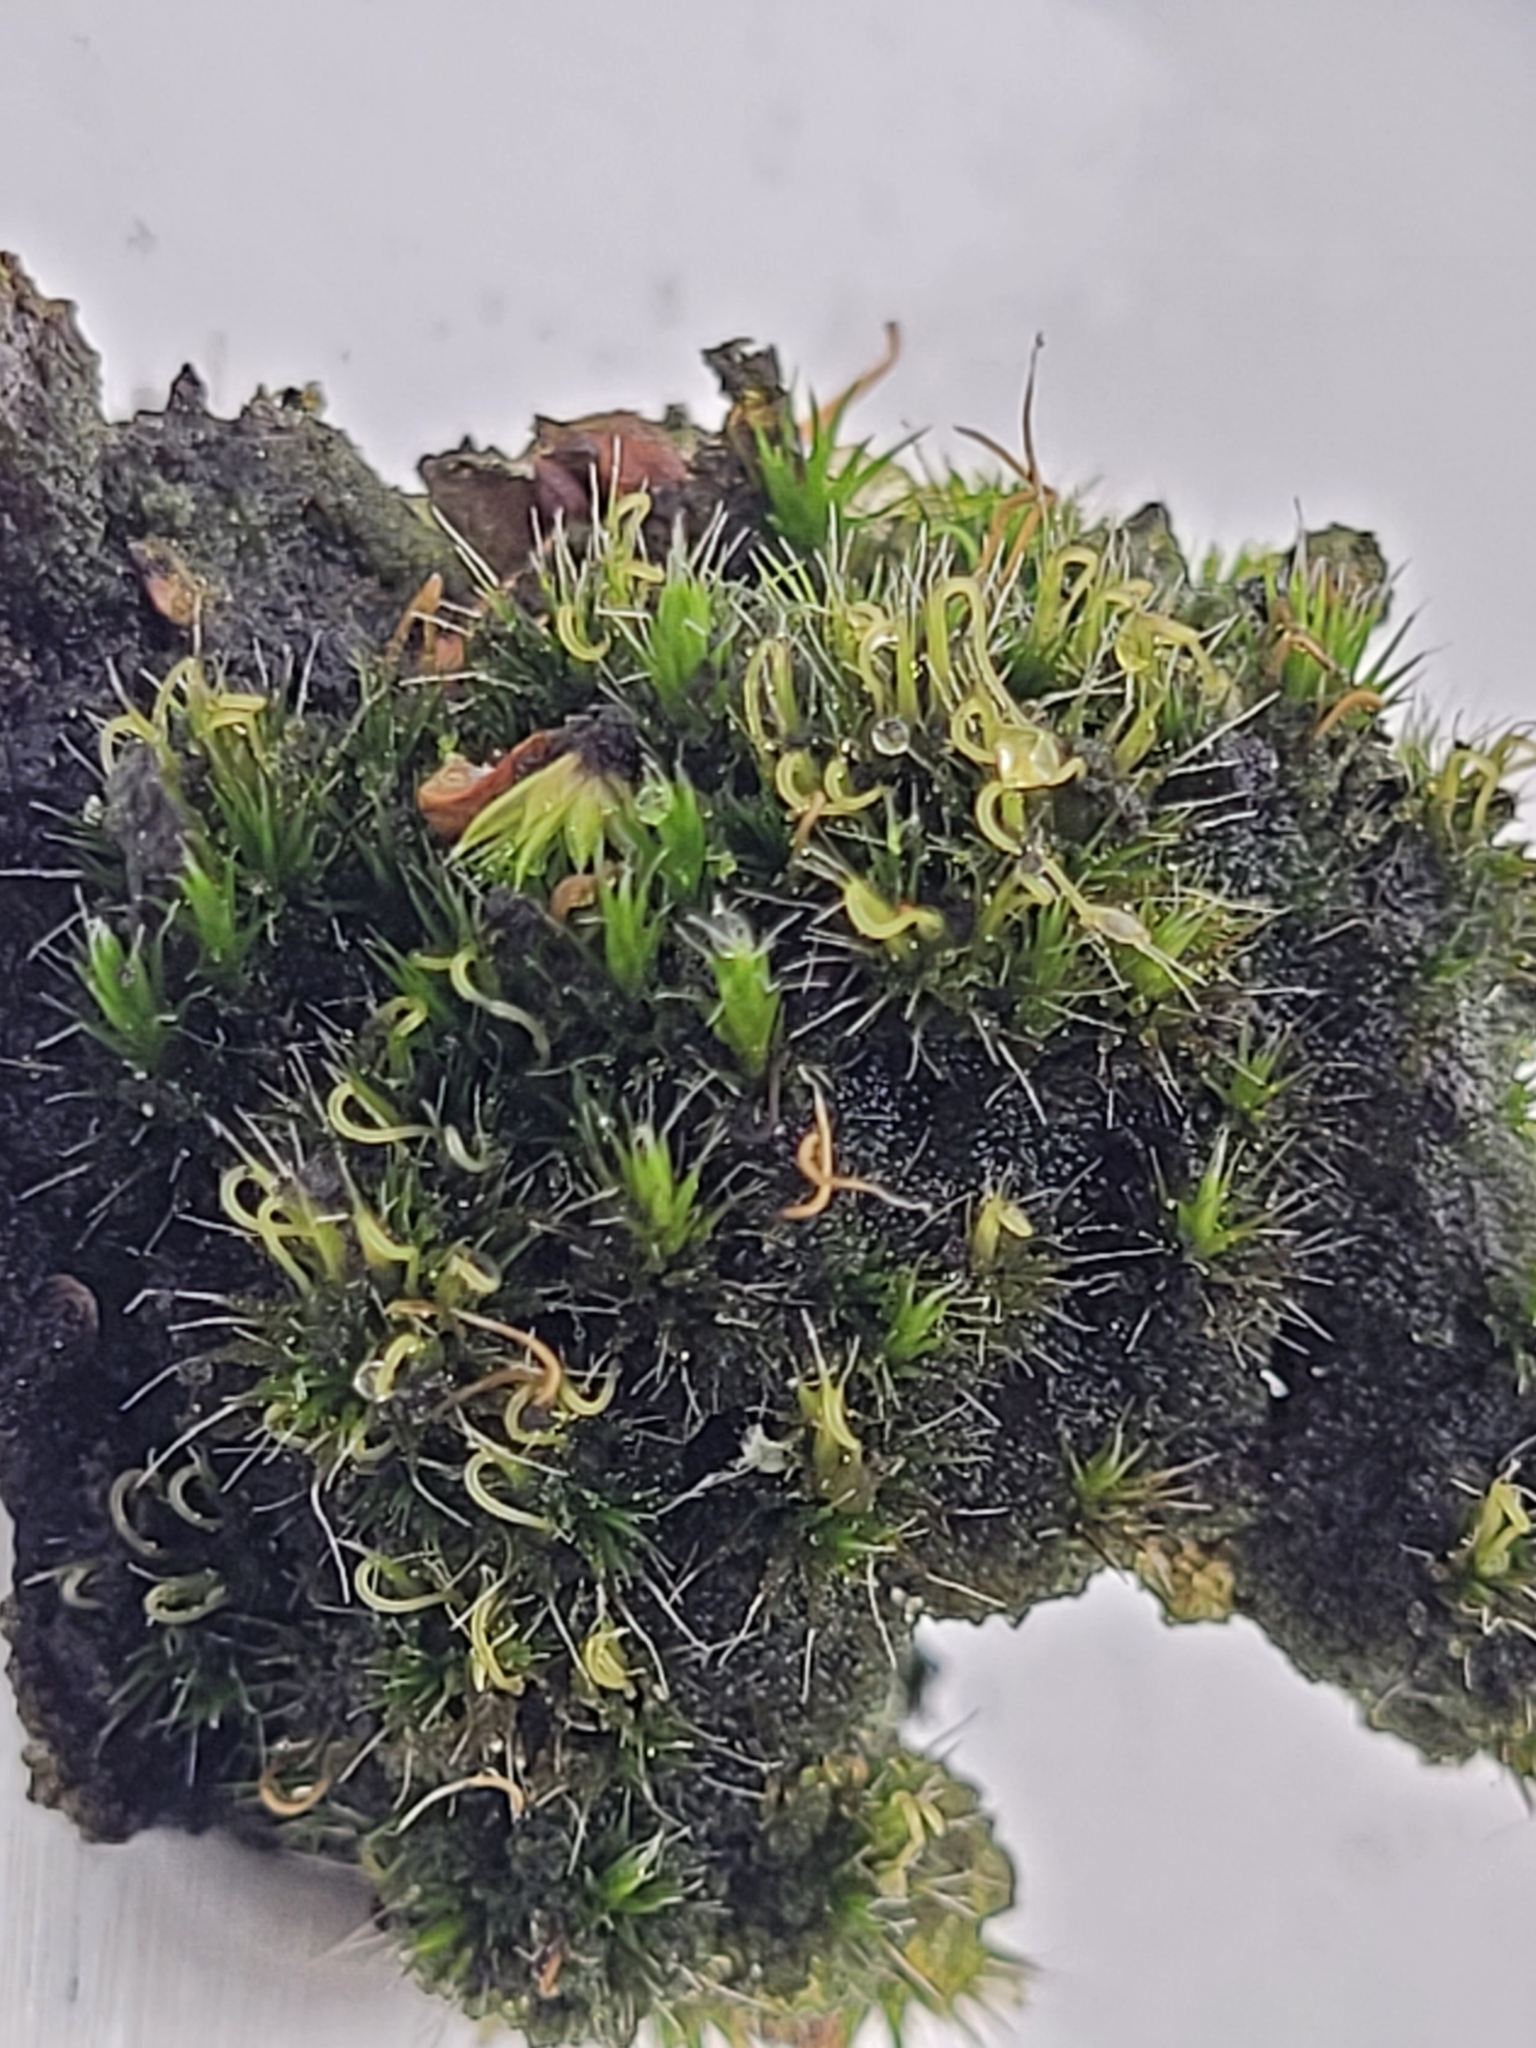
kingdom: Plantae
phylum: Bryophyta
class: Bryopsida
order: Dicranales
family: Leucobryaceae
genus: Campylopus
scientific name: Campylopus introflexus
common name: Heath star moss
